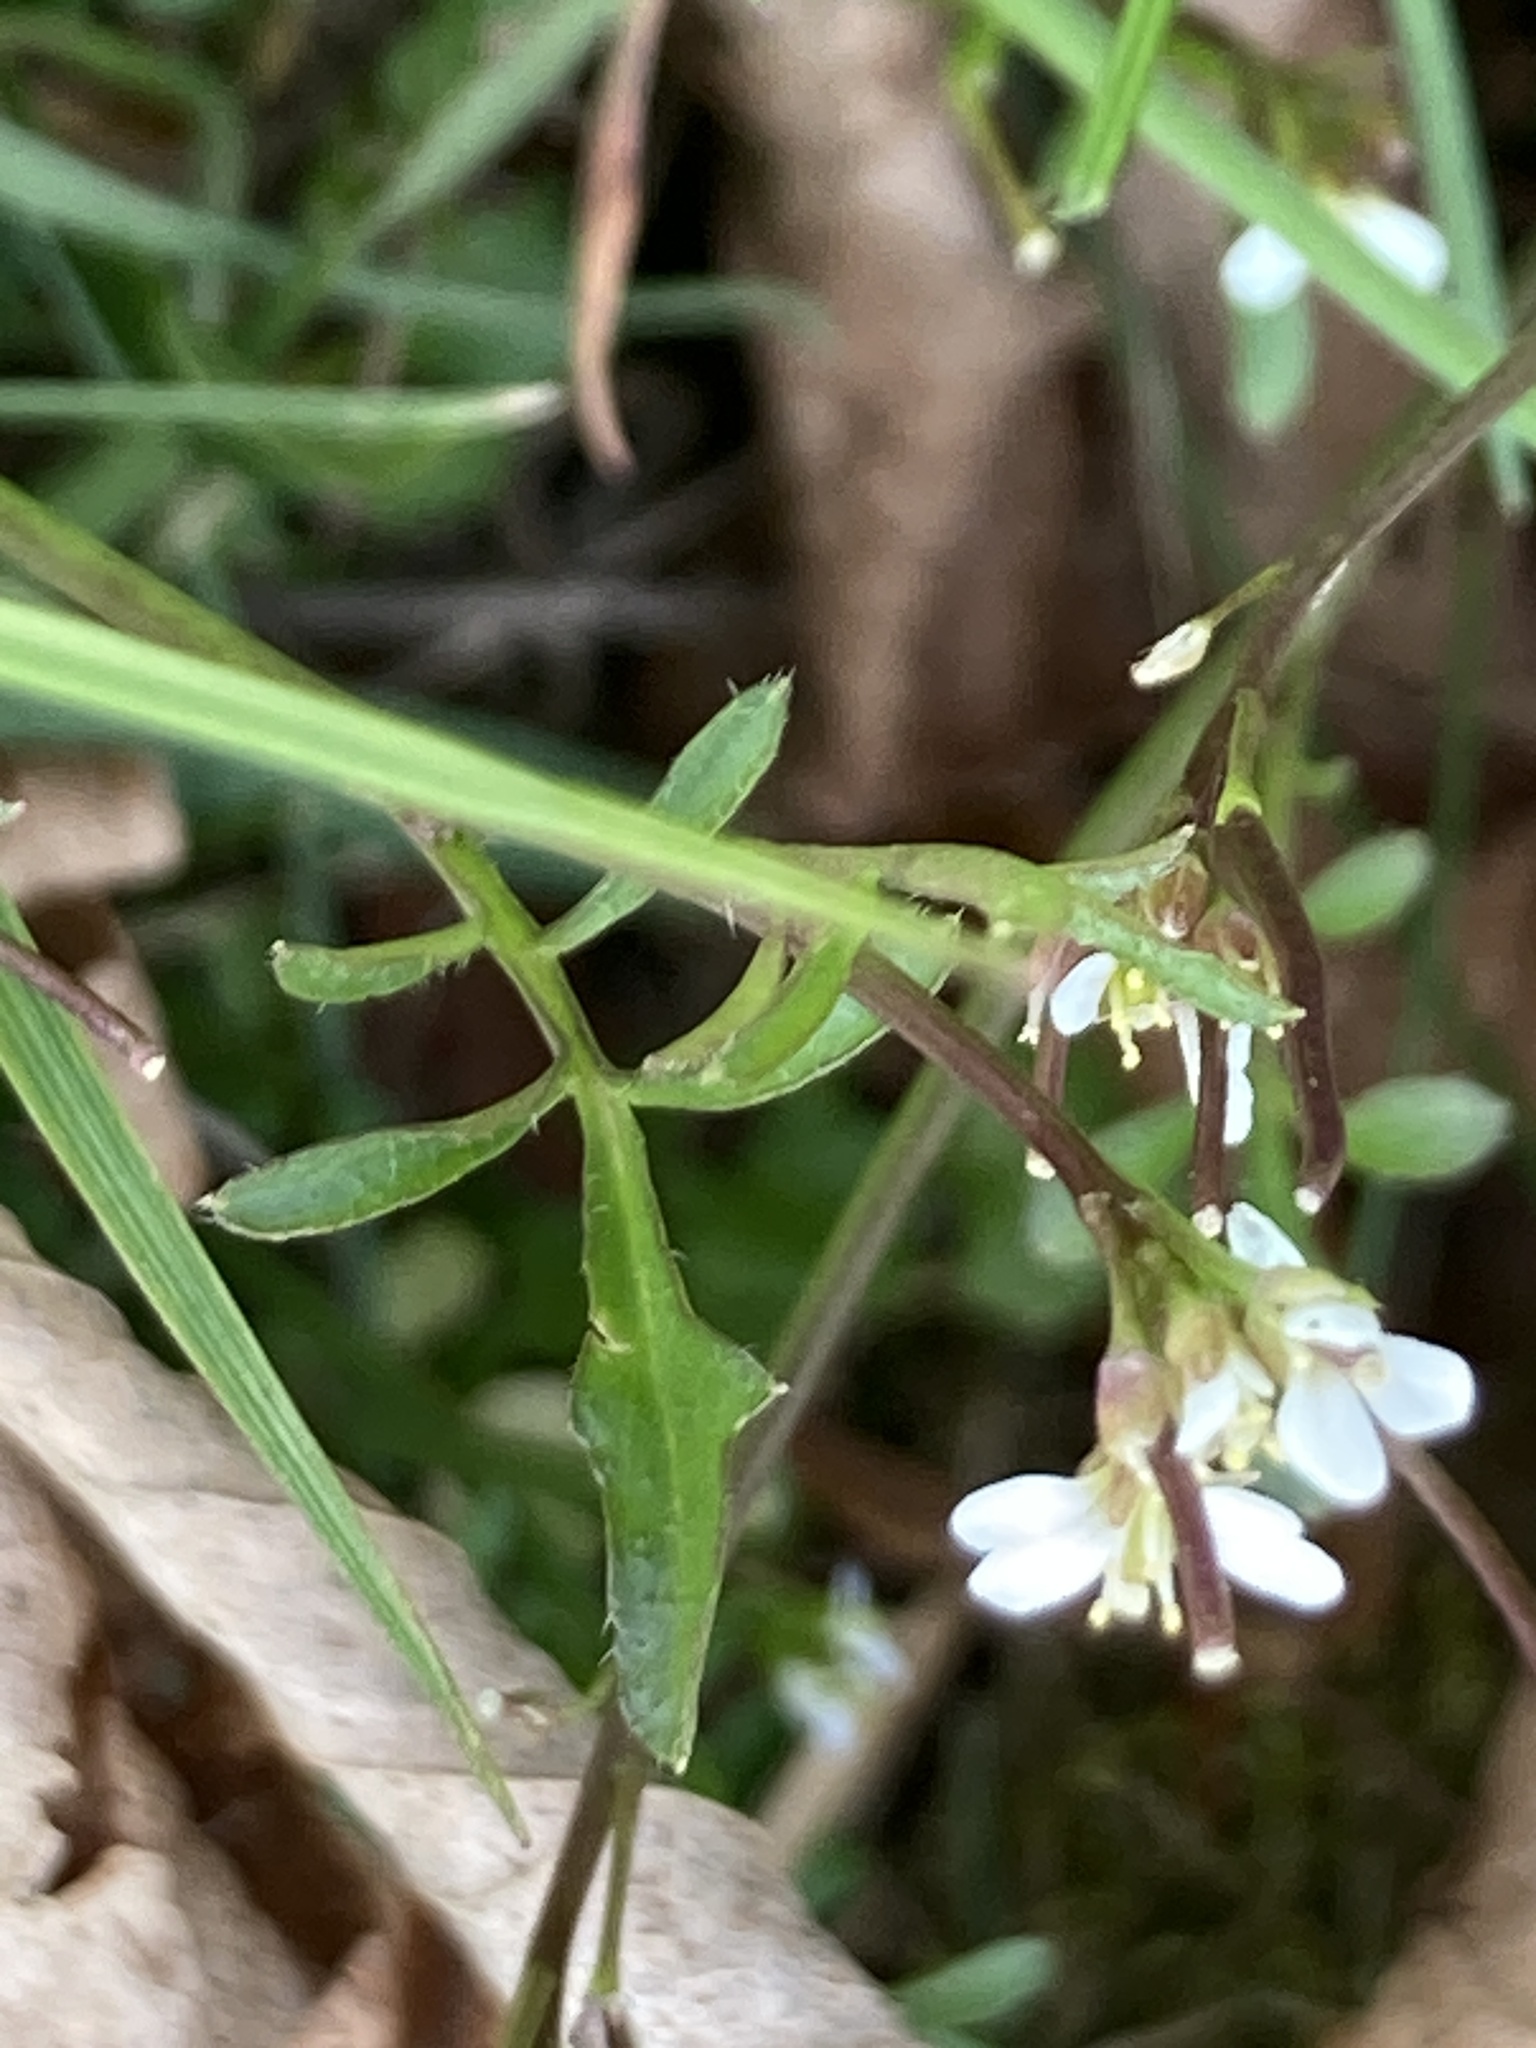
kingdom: Plantae
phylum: Tracheophyta
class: Magnoliopsida
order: Brassicales
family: Brassicaceae
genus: Cardamine
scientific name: Cardamine hirsuta
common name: Hairy bittercress
